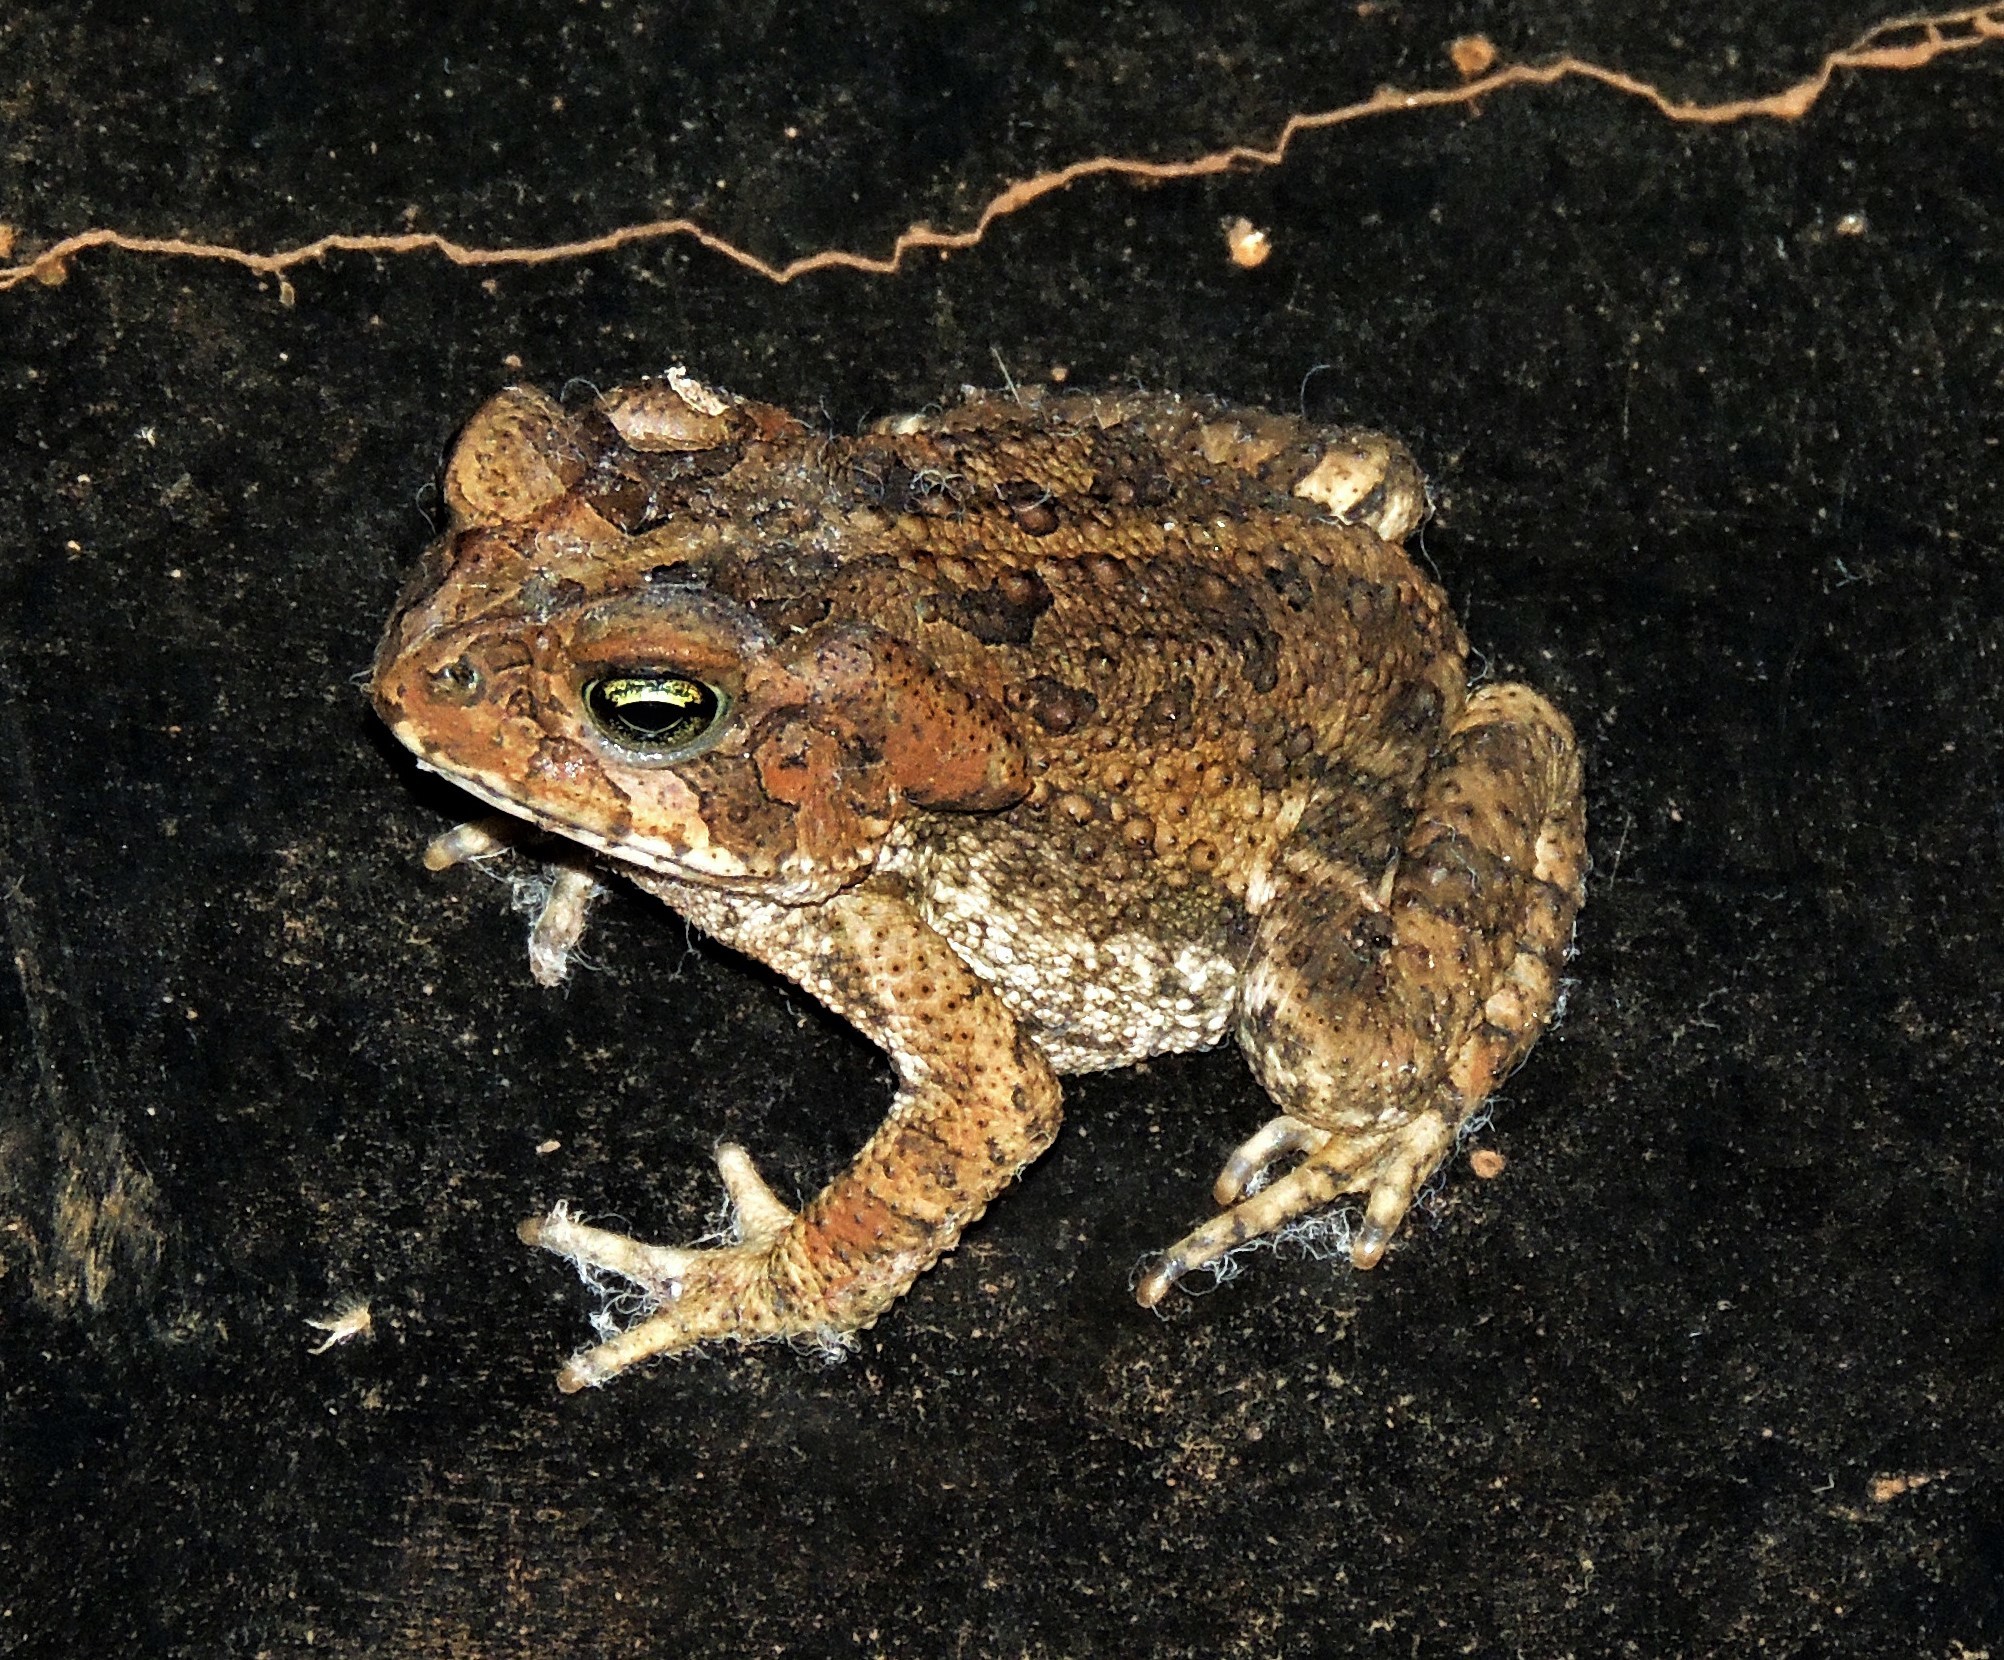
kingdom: Animalia
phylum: Chordata
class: Amphibia
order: Anura
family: Bufonidae
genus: Rhinella
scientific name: Rhinella icterica
